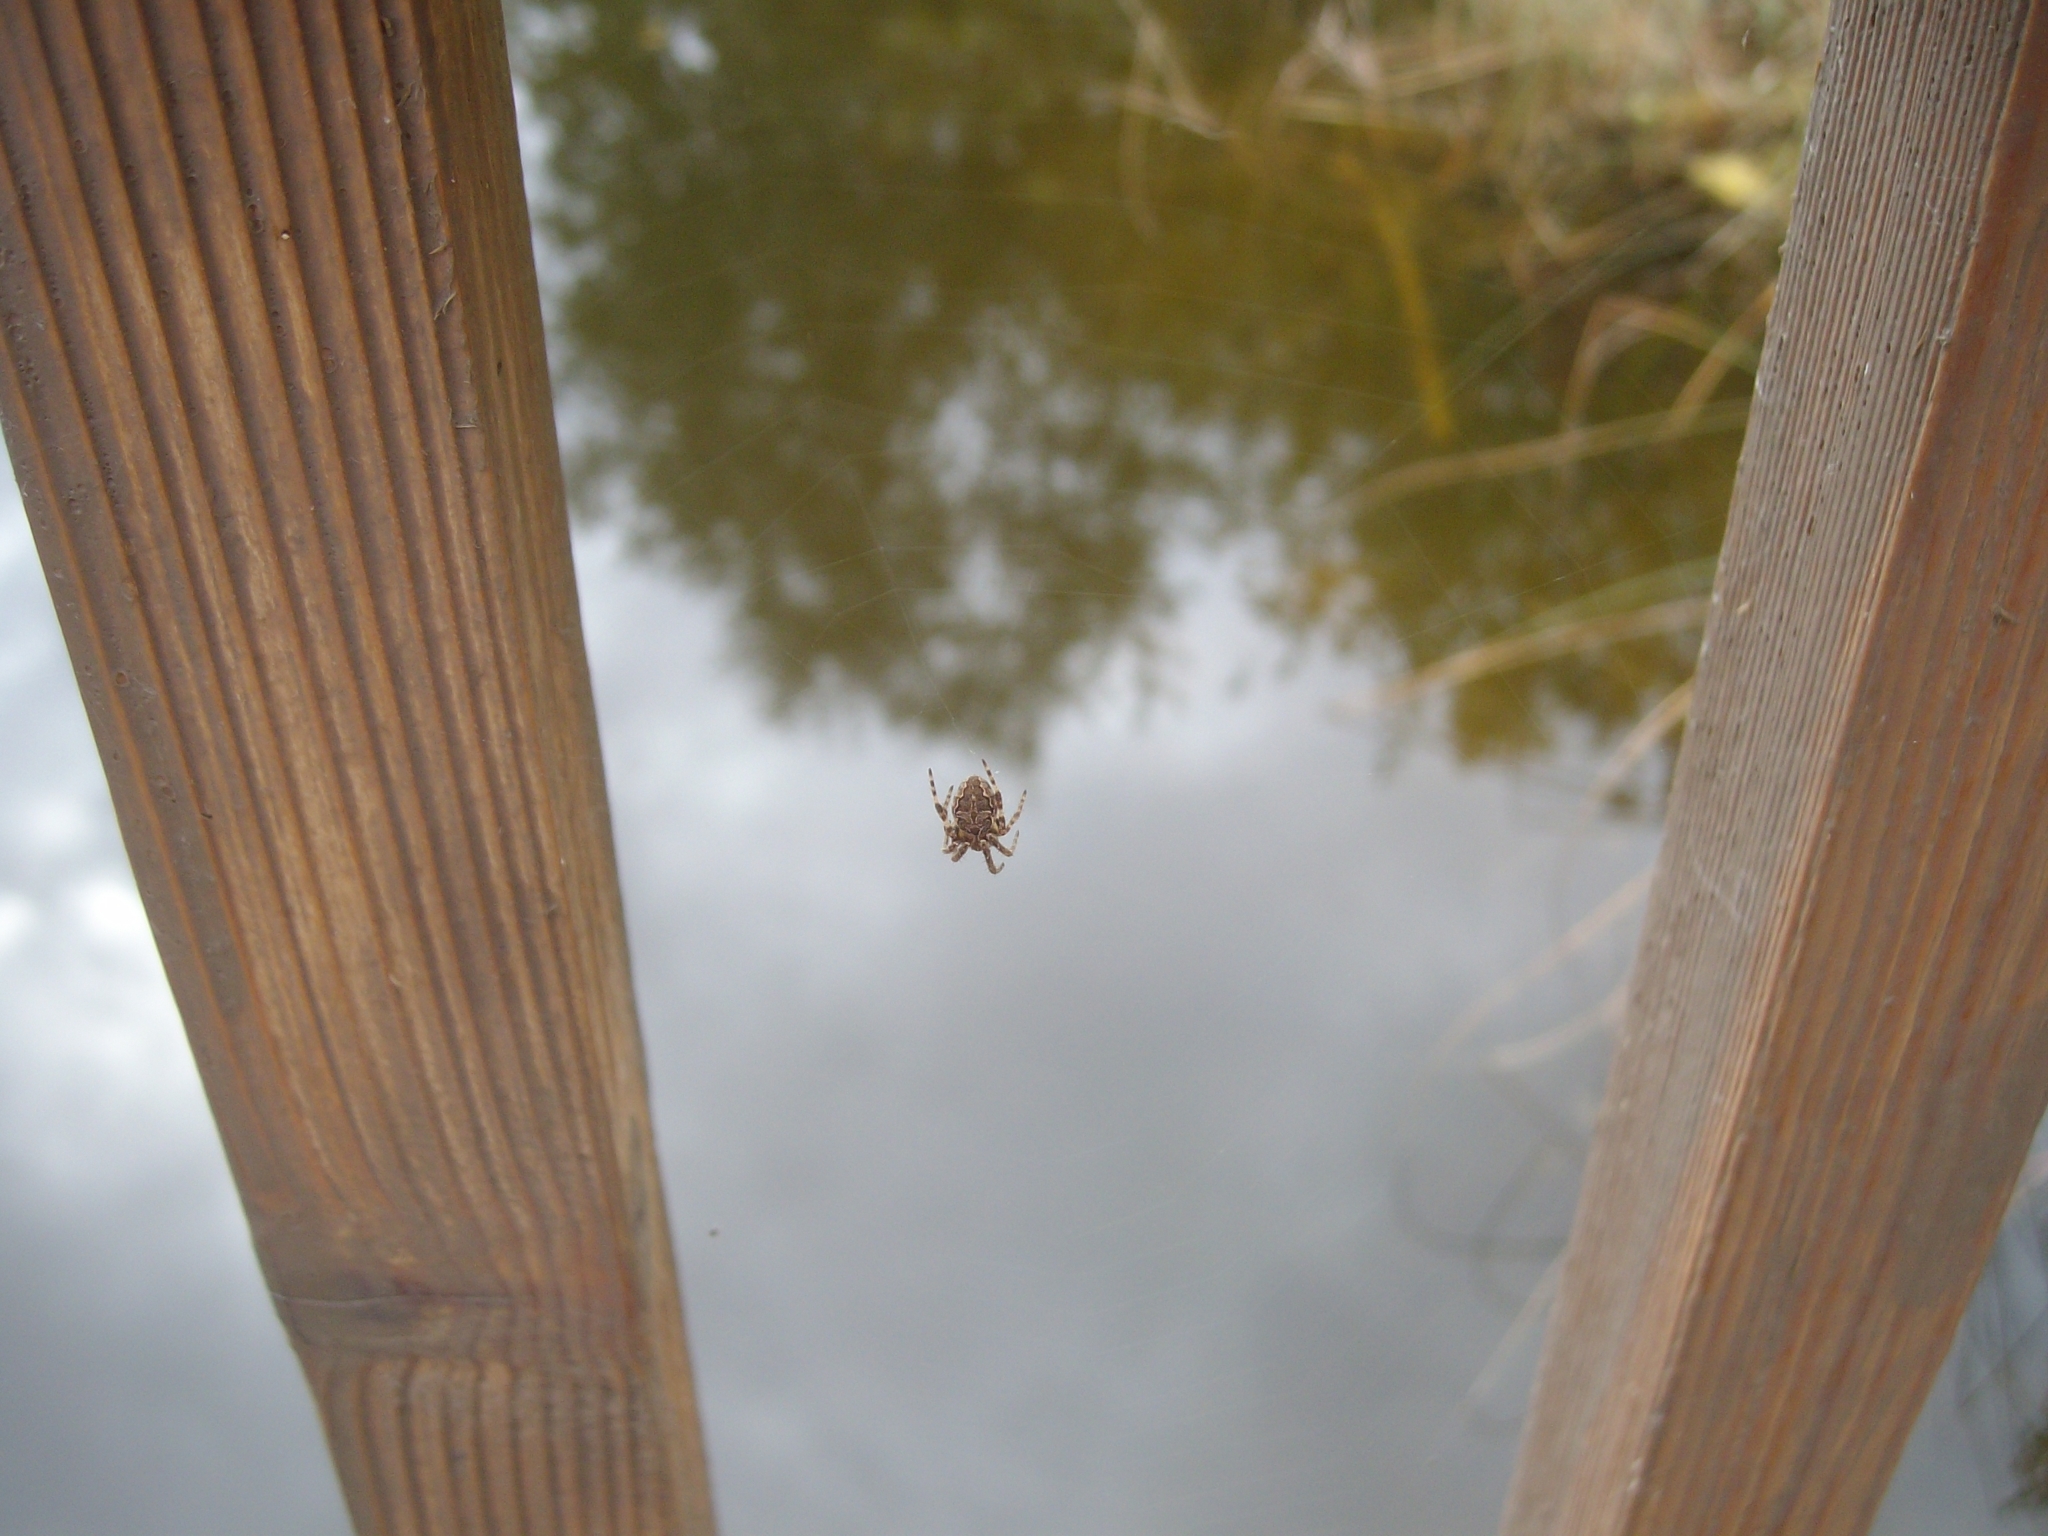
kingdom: Animalia
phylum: Arthropoda
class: Arachnida
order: Araneae
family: Araneidae
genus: Larinioides
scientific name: Larinioides sclopetarius
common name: Bridge orbweaver
